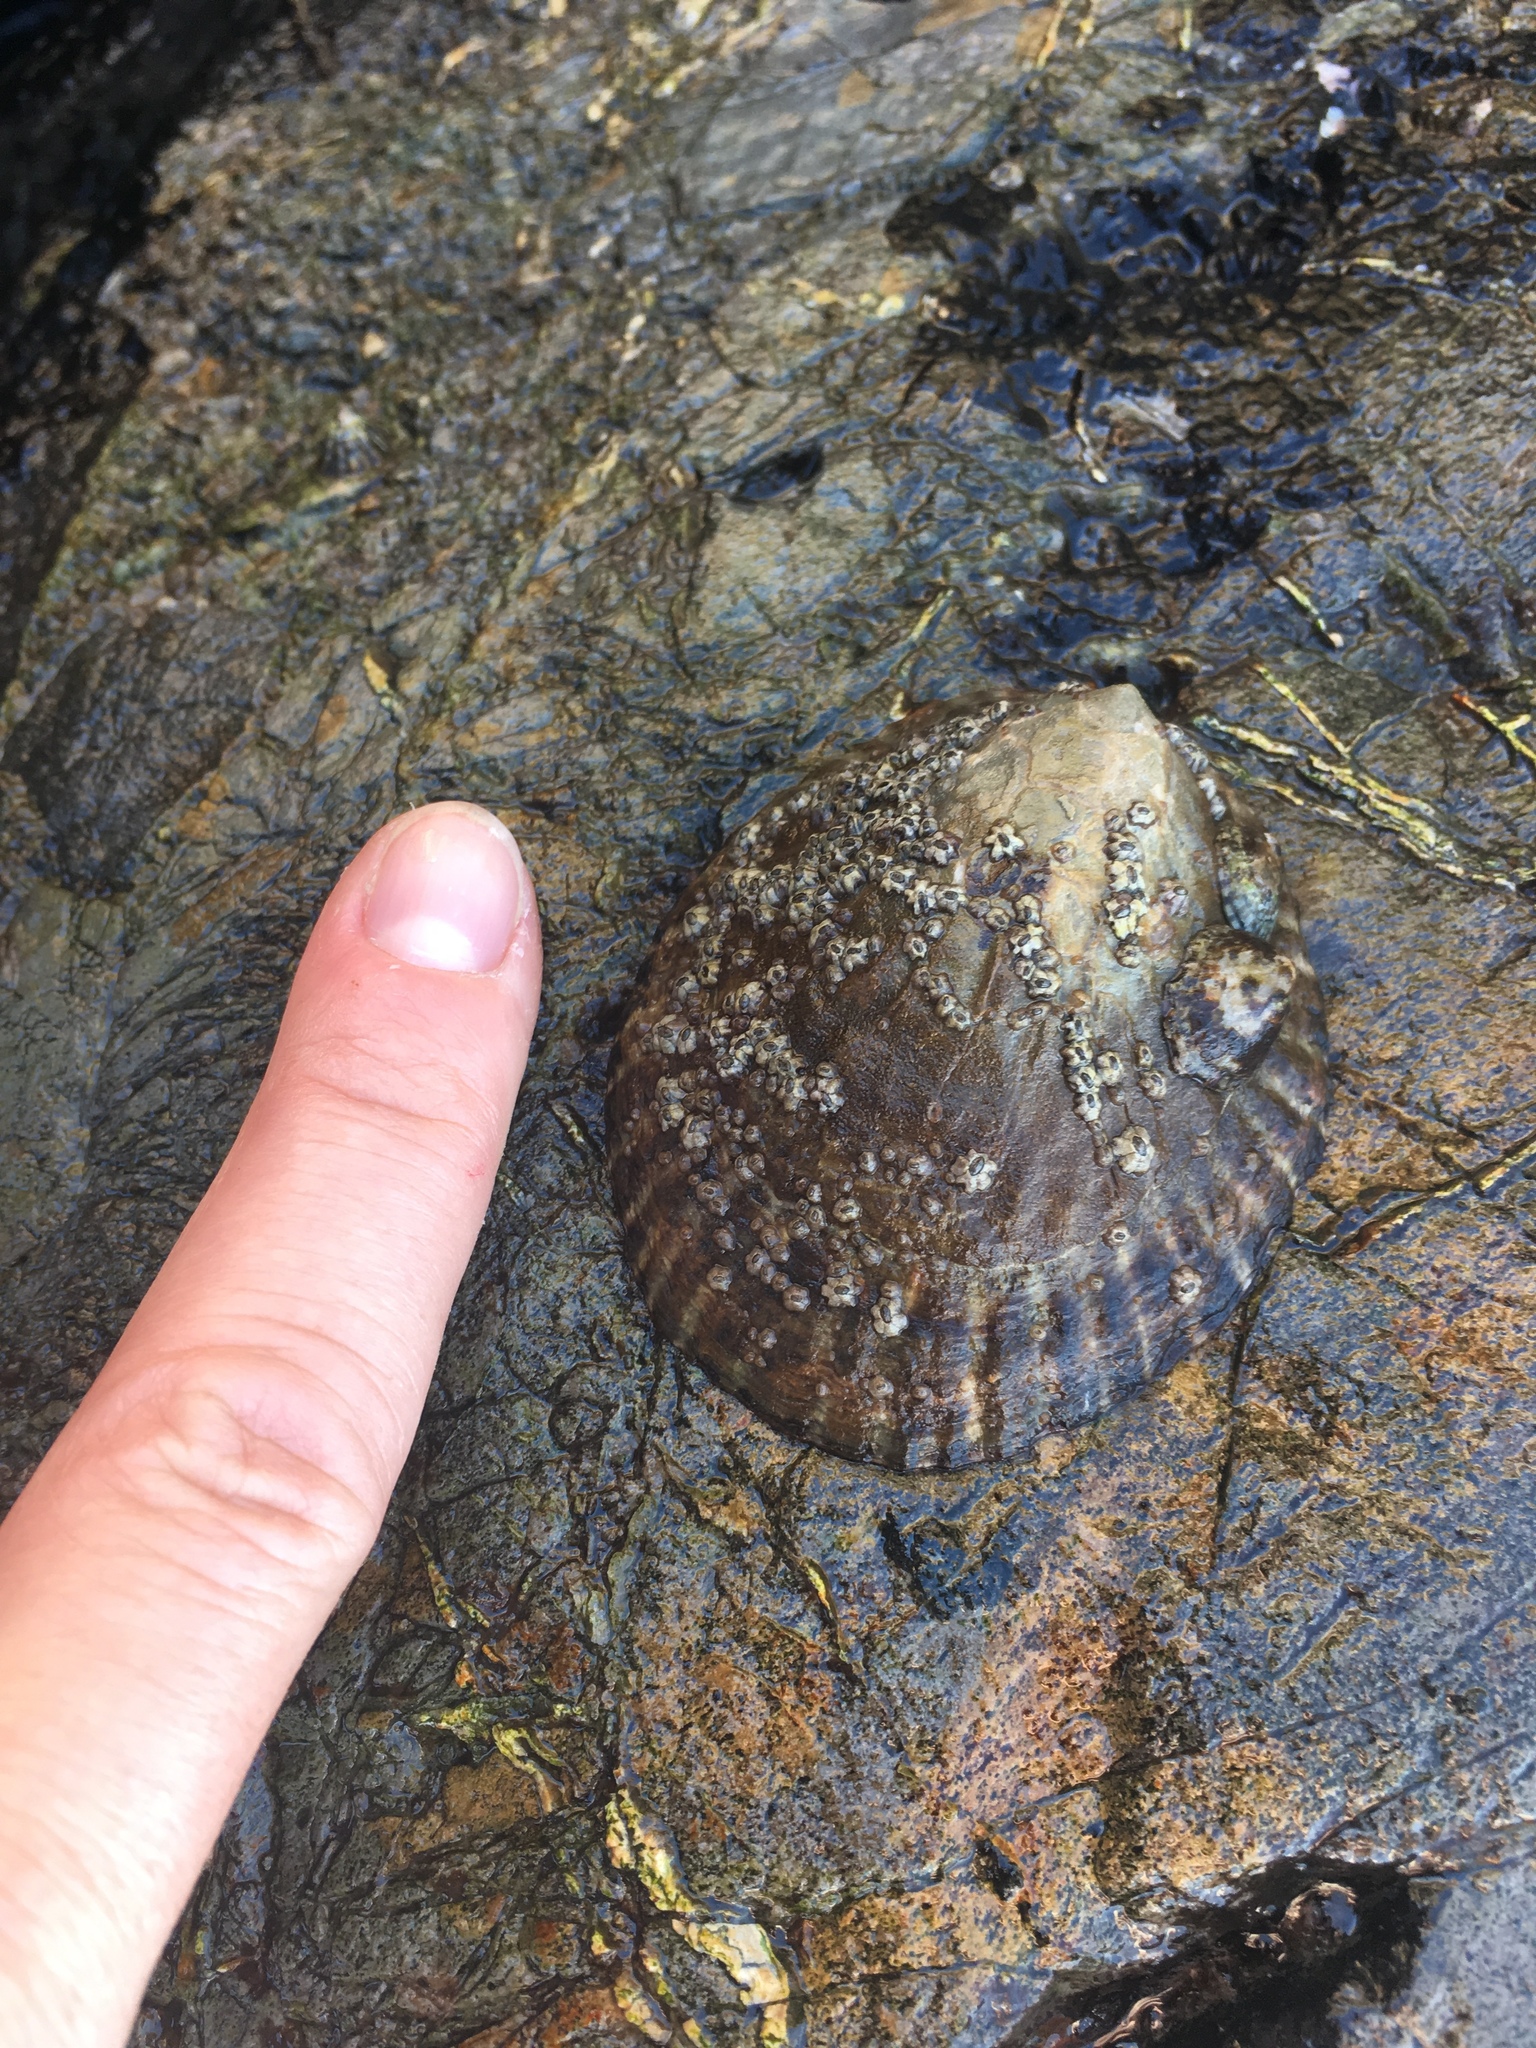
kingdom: Animalia
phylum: Mollusca
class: Gastropoda
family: Lottiidae
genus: Lottia
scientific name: Lottia gigantea
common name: Owl limpet
